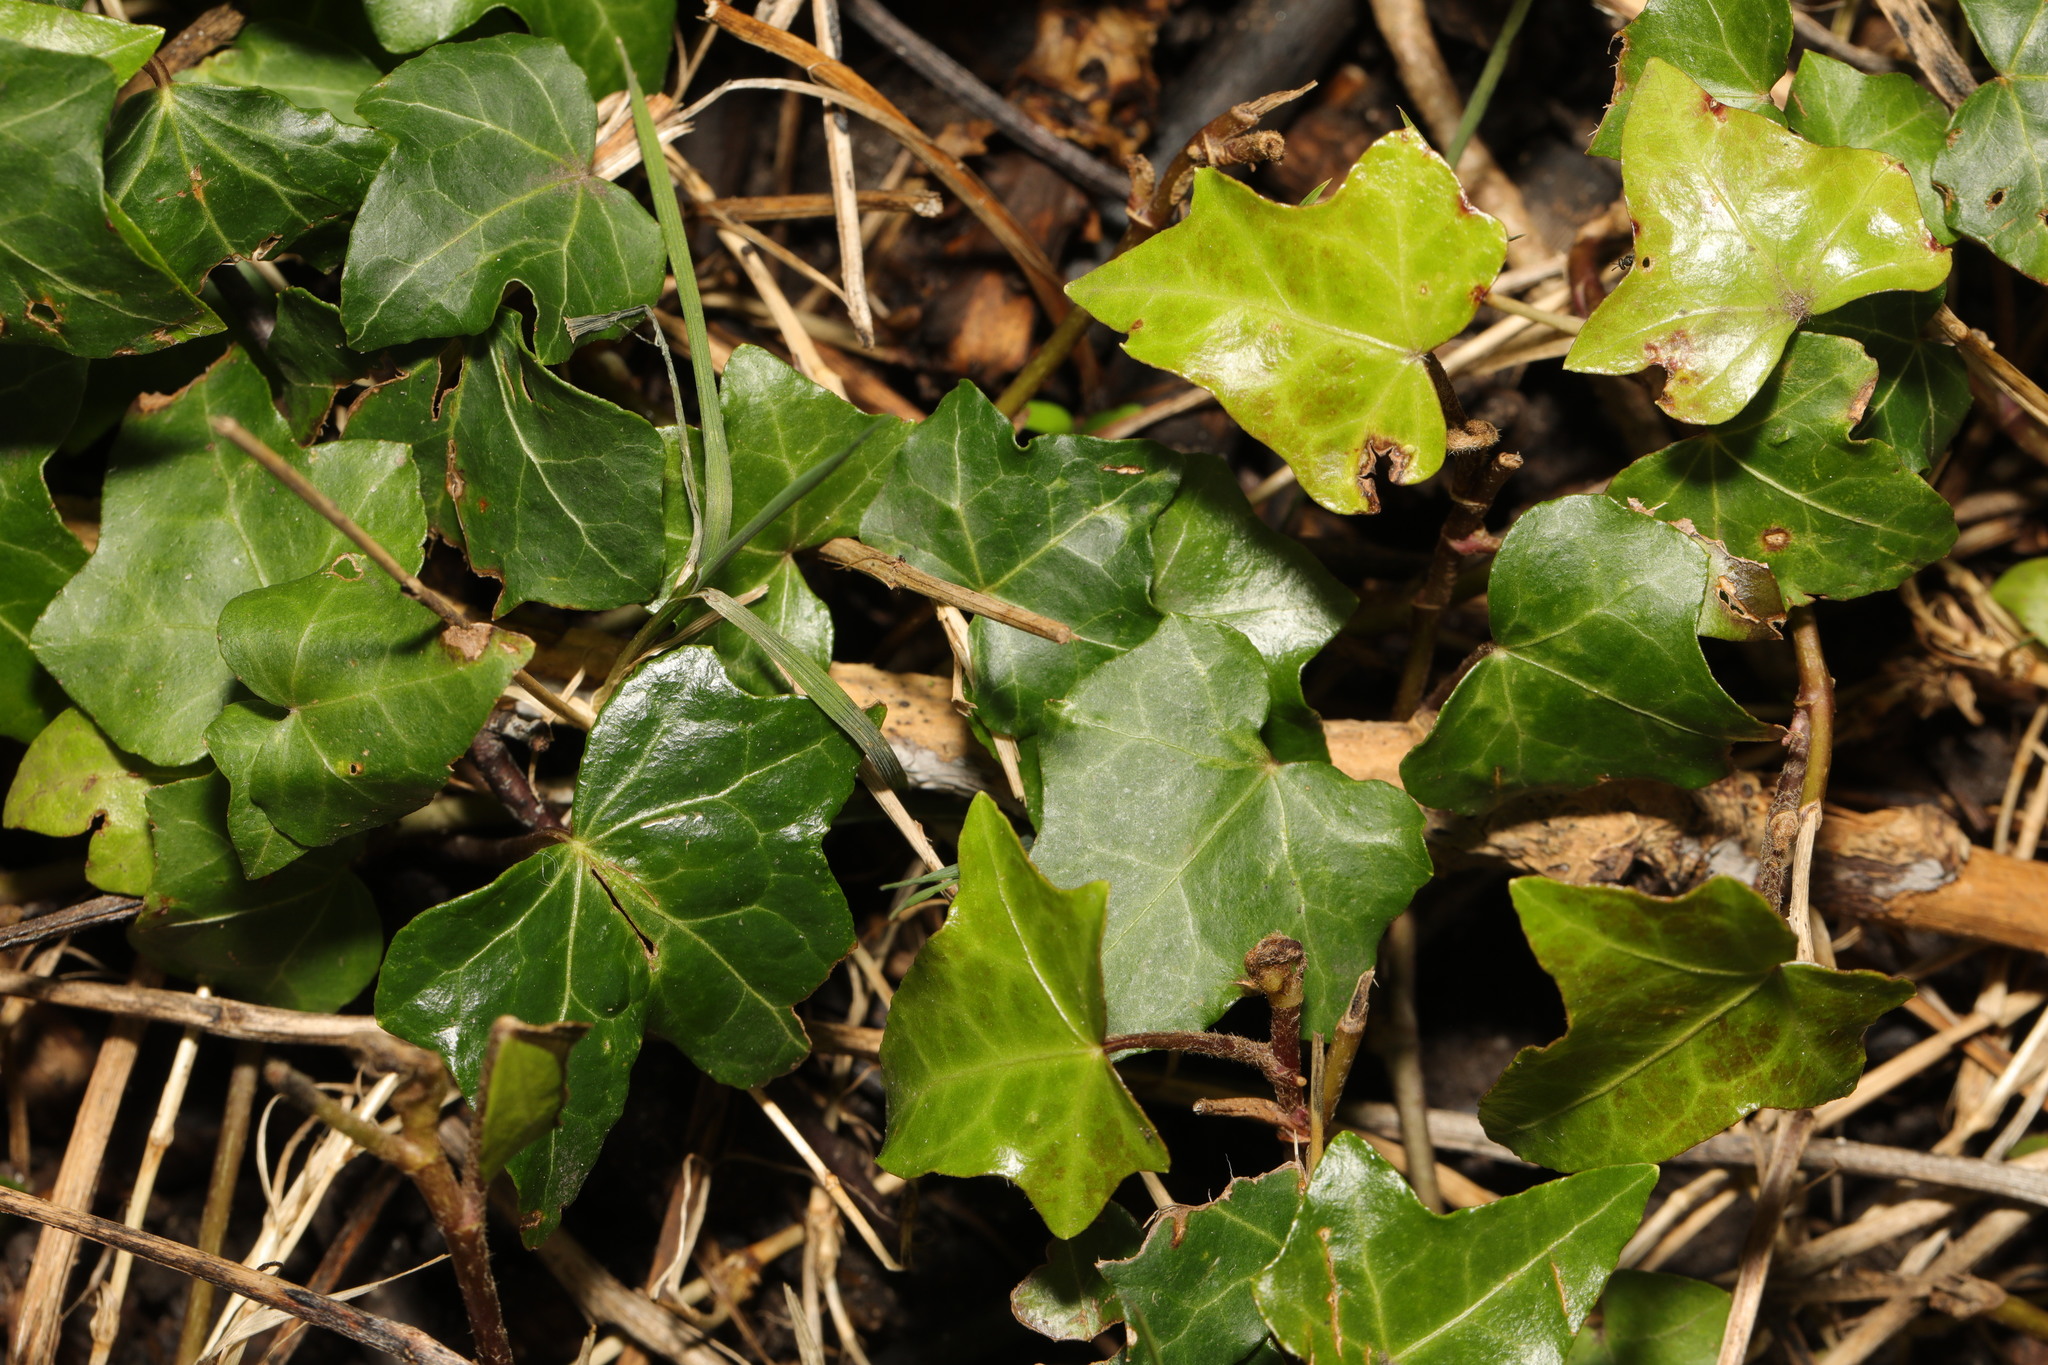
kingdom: Plantae
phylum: Tracheophyta
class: Magnoliopsida
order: Apiales
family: Araliaceae
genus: Hedera
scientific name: Hedera helix
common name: Ivy
